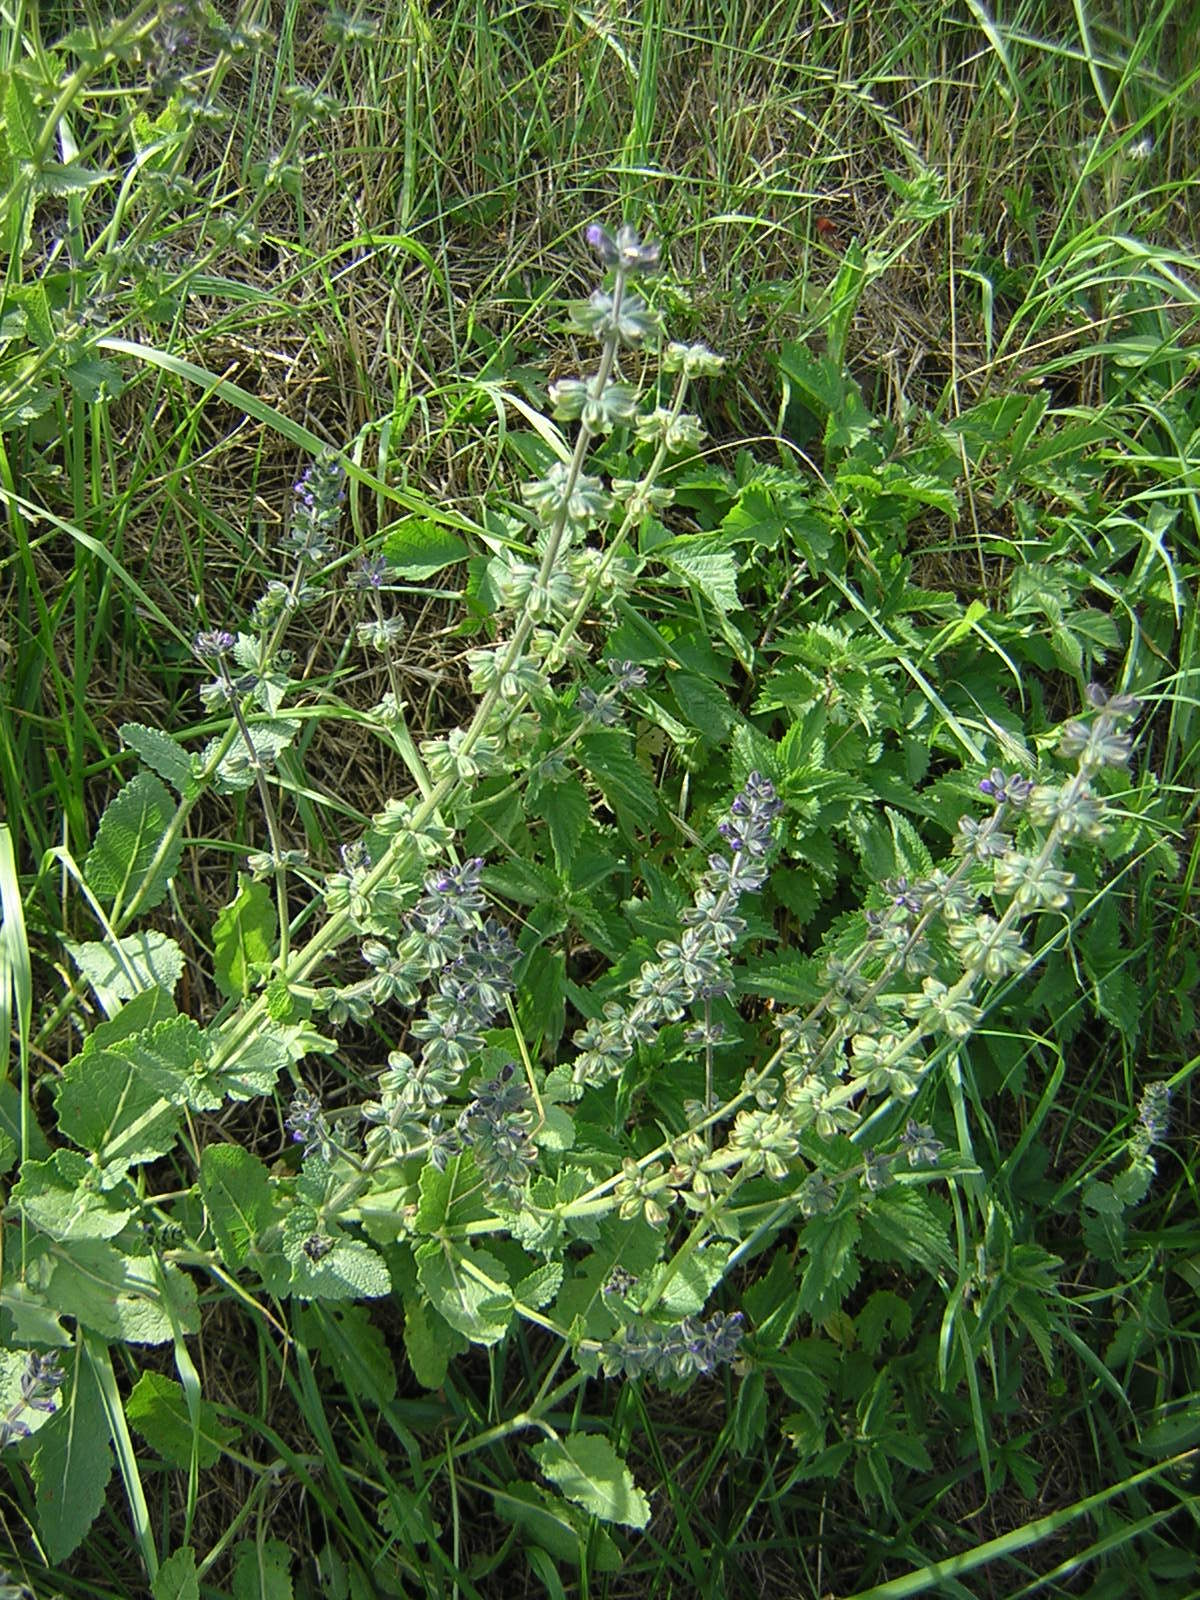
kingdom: Plantae
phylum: Tracheophyta
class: Magnoliopsida
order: Lamiales
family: Lamiaceae
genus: Salvia
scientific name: Salvia verbenaca
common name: Wild clary
